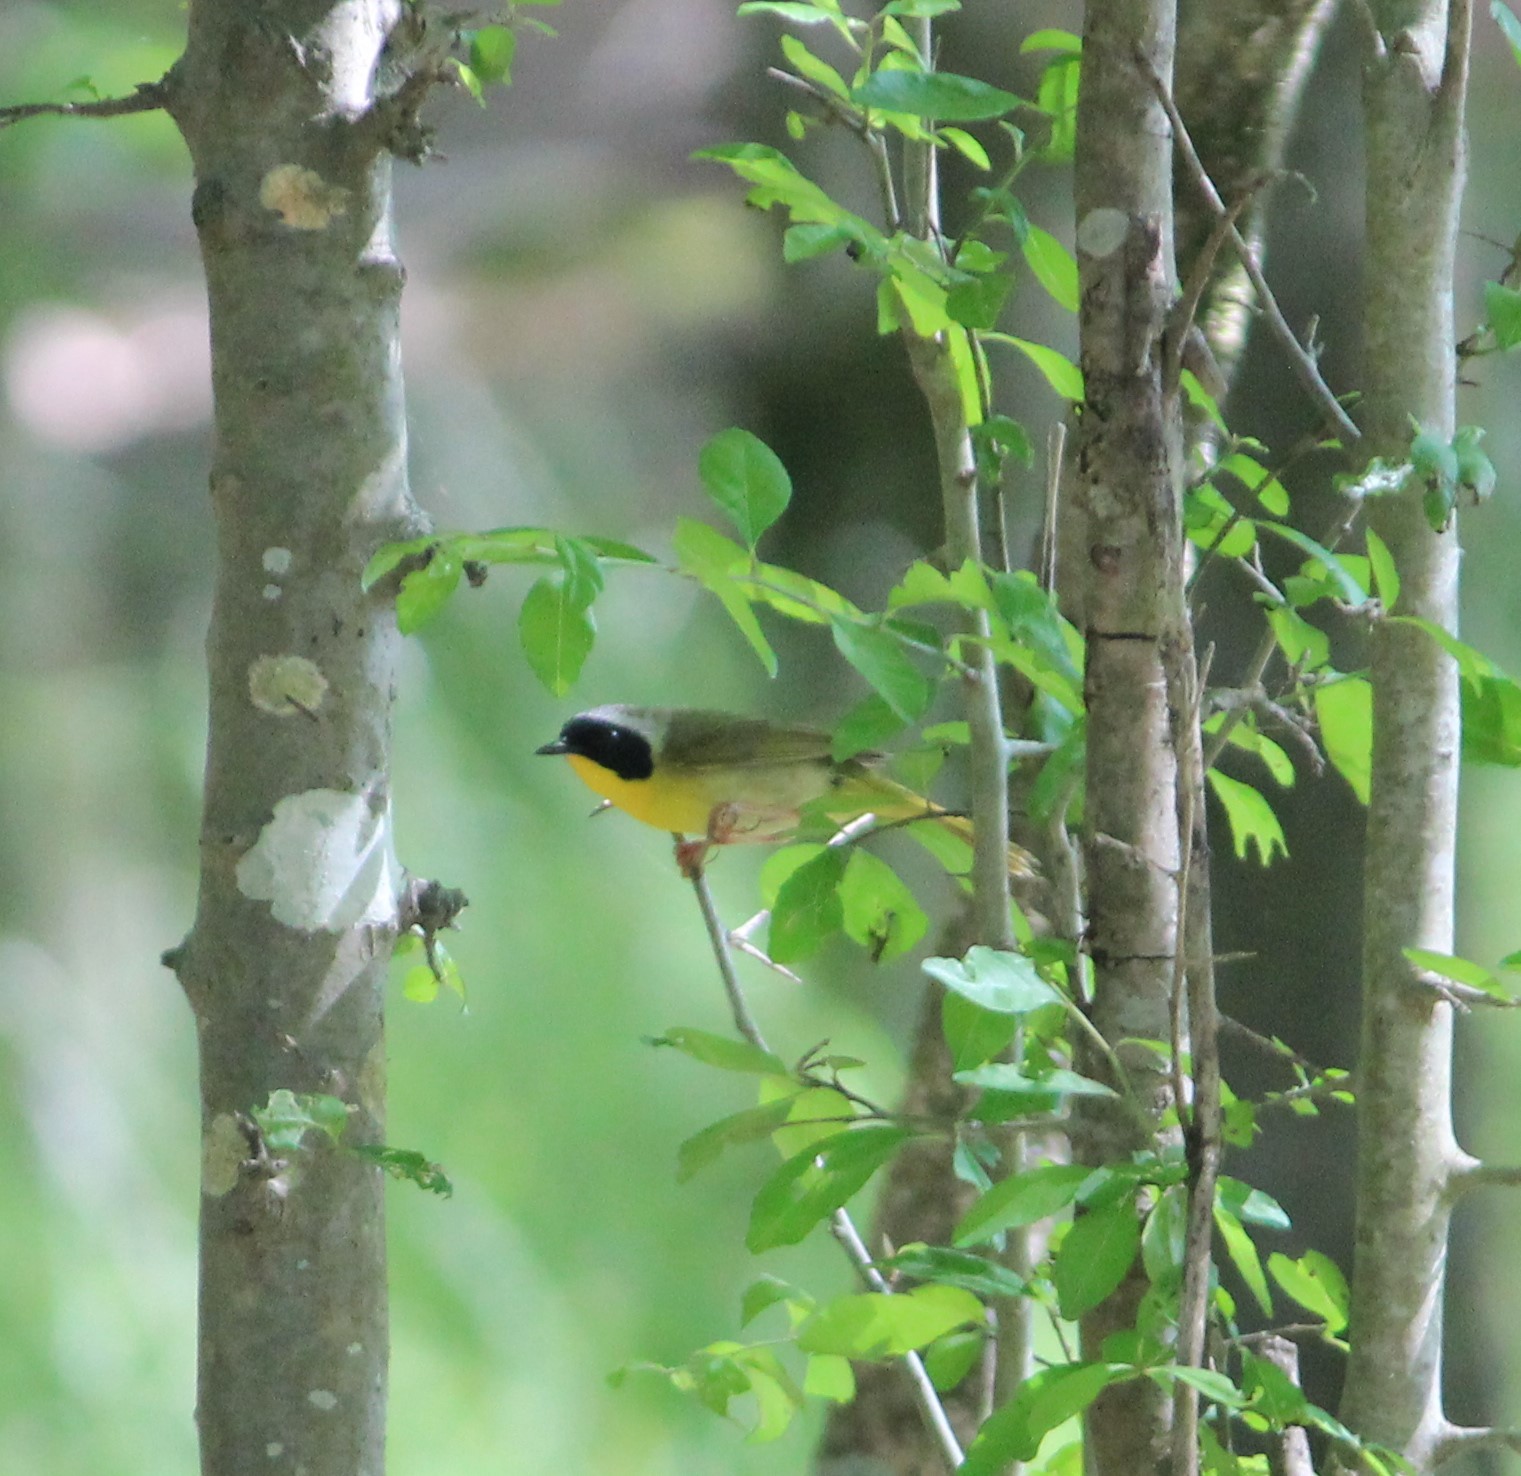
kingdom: Animalia
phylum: Chordata
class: Aves
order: Passeriformes
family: Parulidae
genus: Geothlypis
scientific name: Geothlypis trichas
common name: Common yellowthroat
